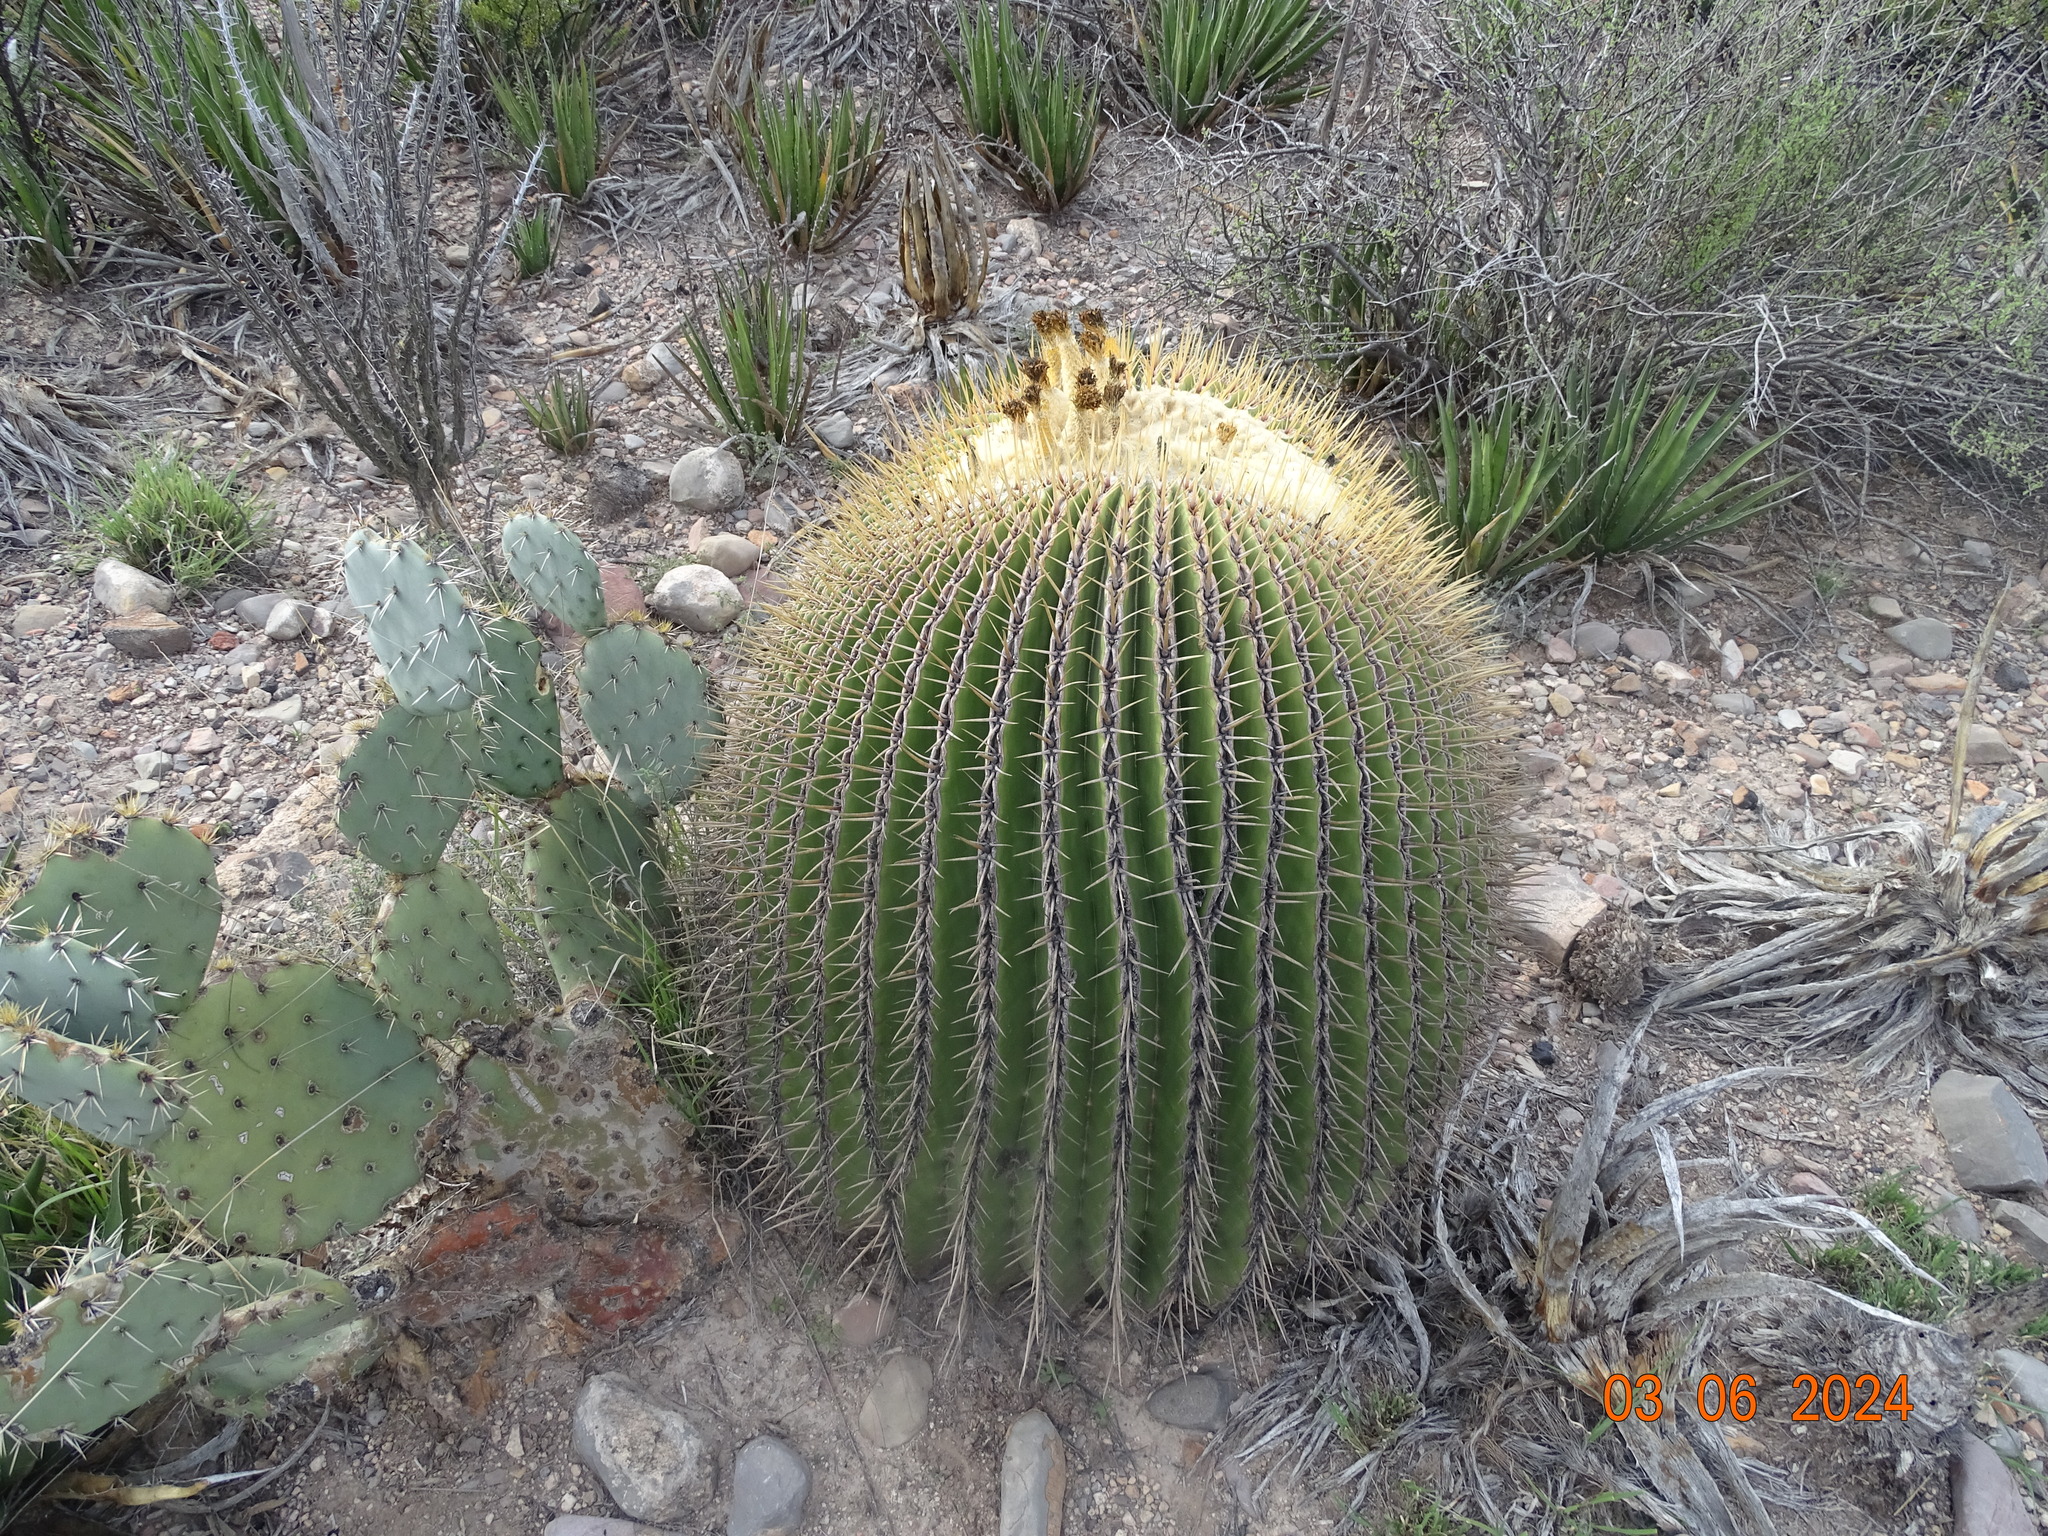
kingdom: Plantae
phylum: Tracheophyta
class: Magnoliopsida
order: Caryophyllales
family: Cactaceae
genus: Echinocactus
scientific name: Echinocactus platyacanthus
